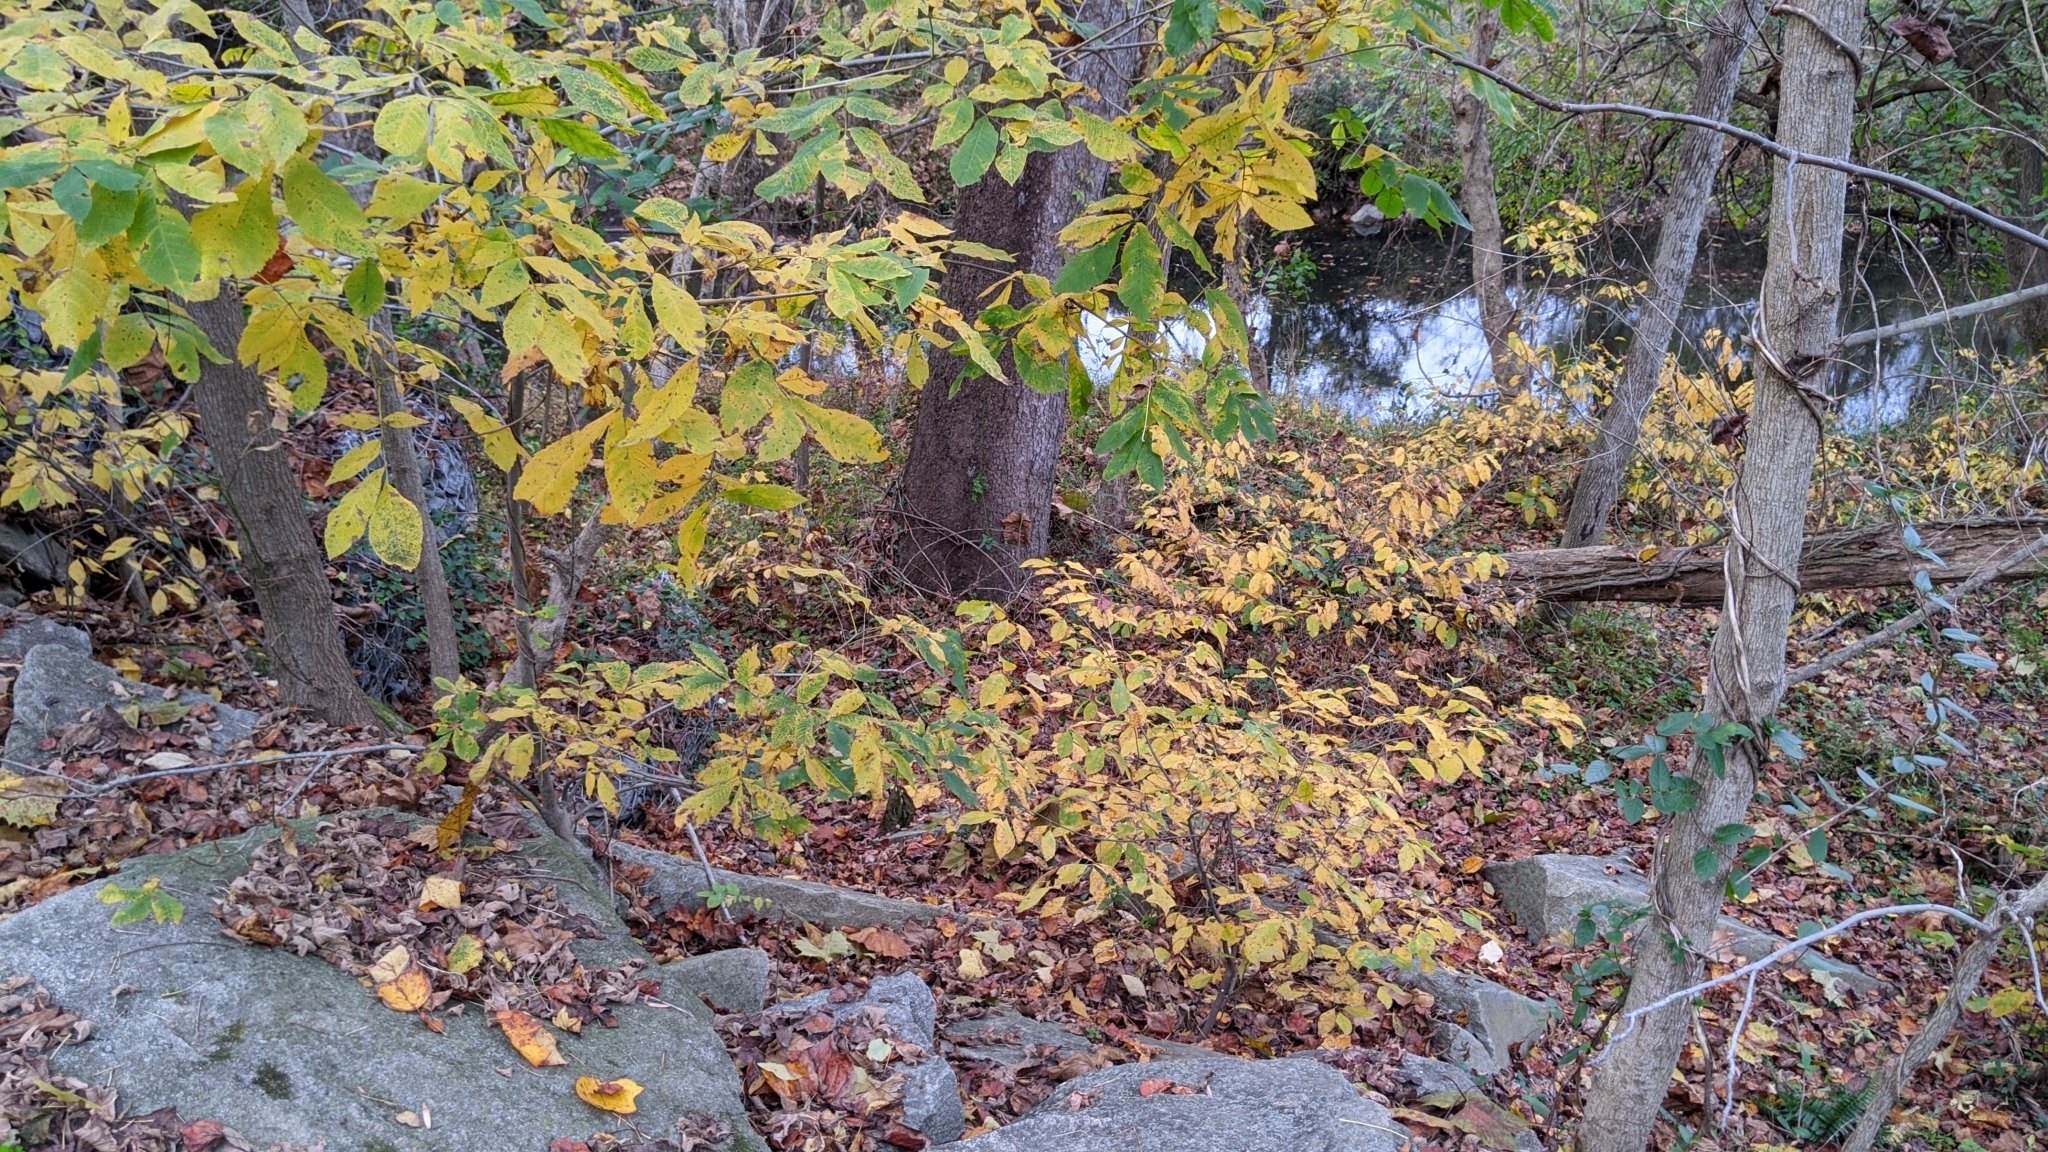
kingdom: Plantae
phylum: Tracheophyta
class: Magnoliopsida
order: Laurales
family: Lauraceae
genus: Lindera
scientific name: Lindera benzoin
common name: Spicebush
